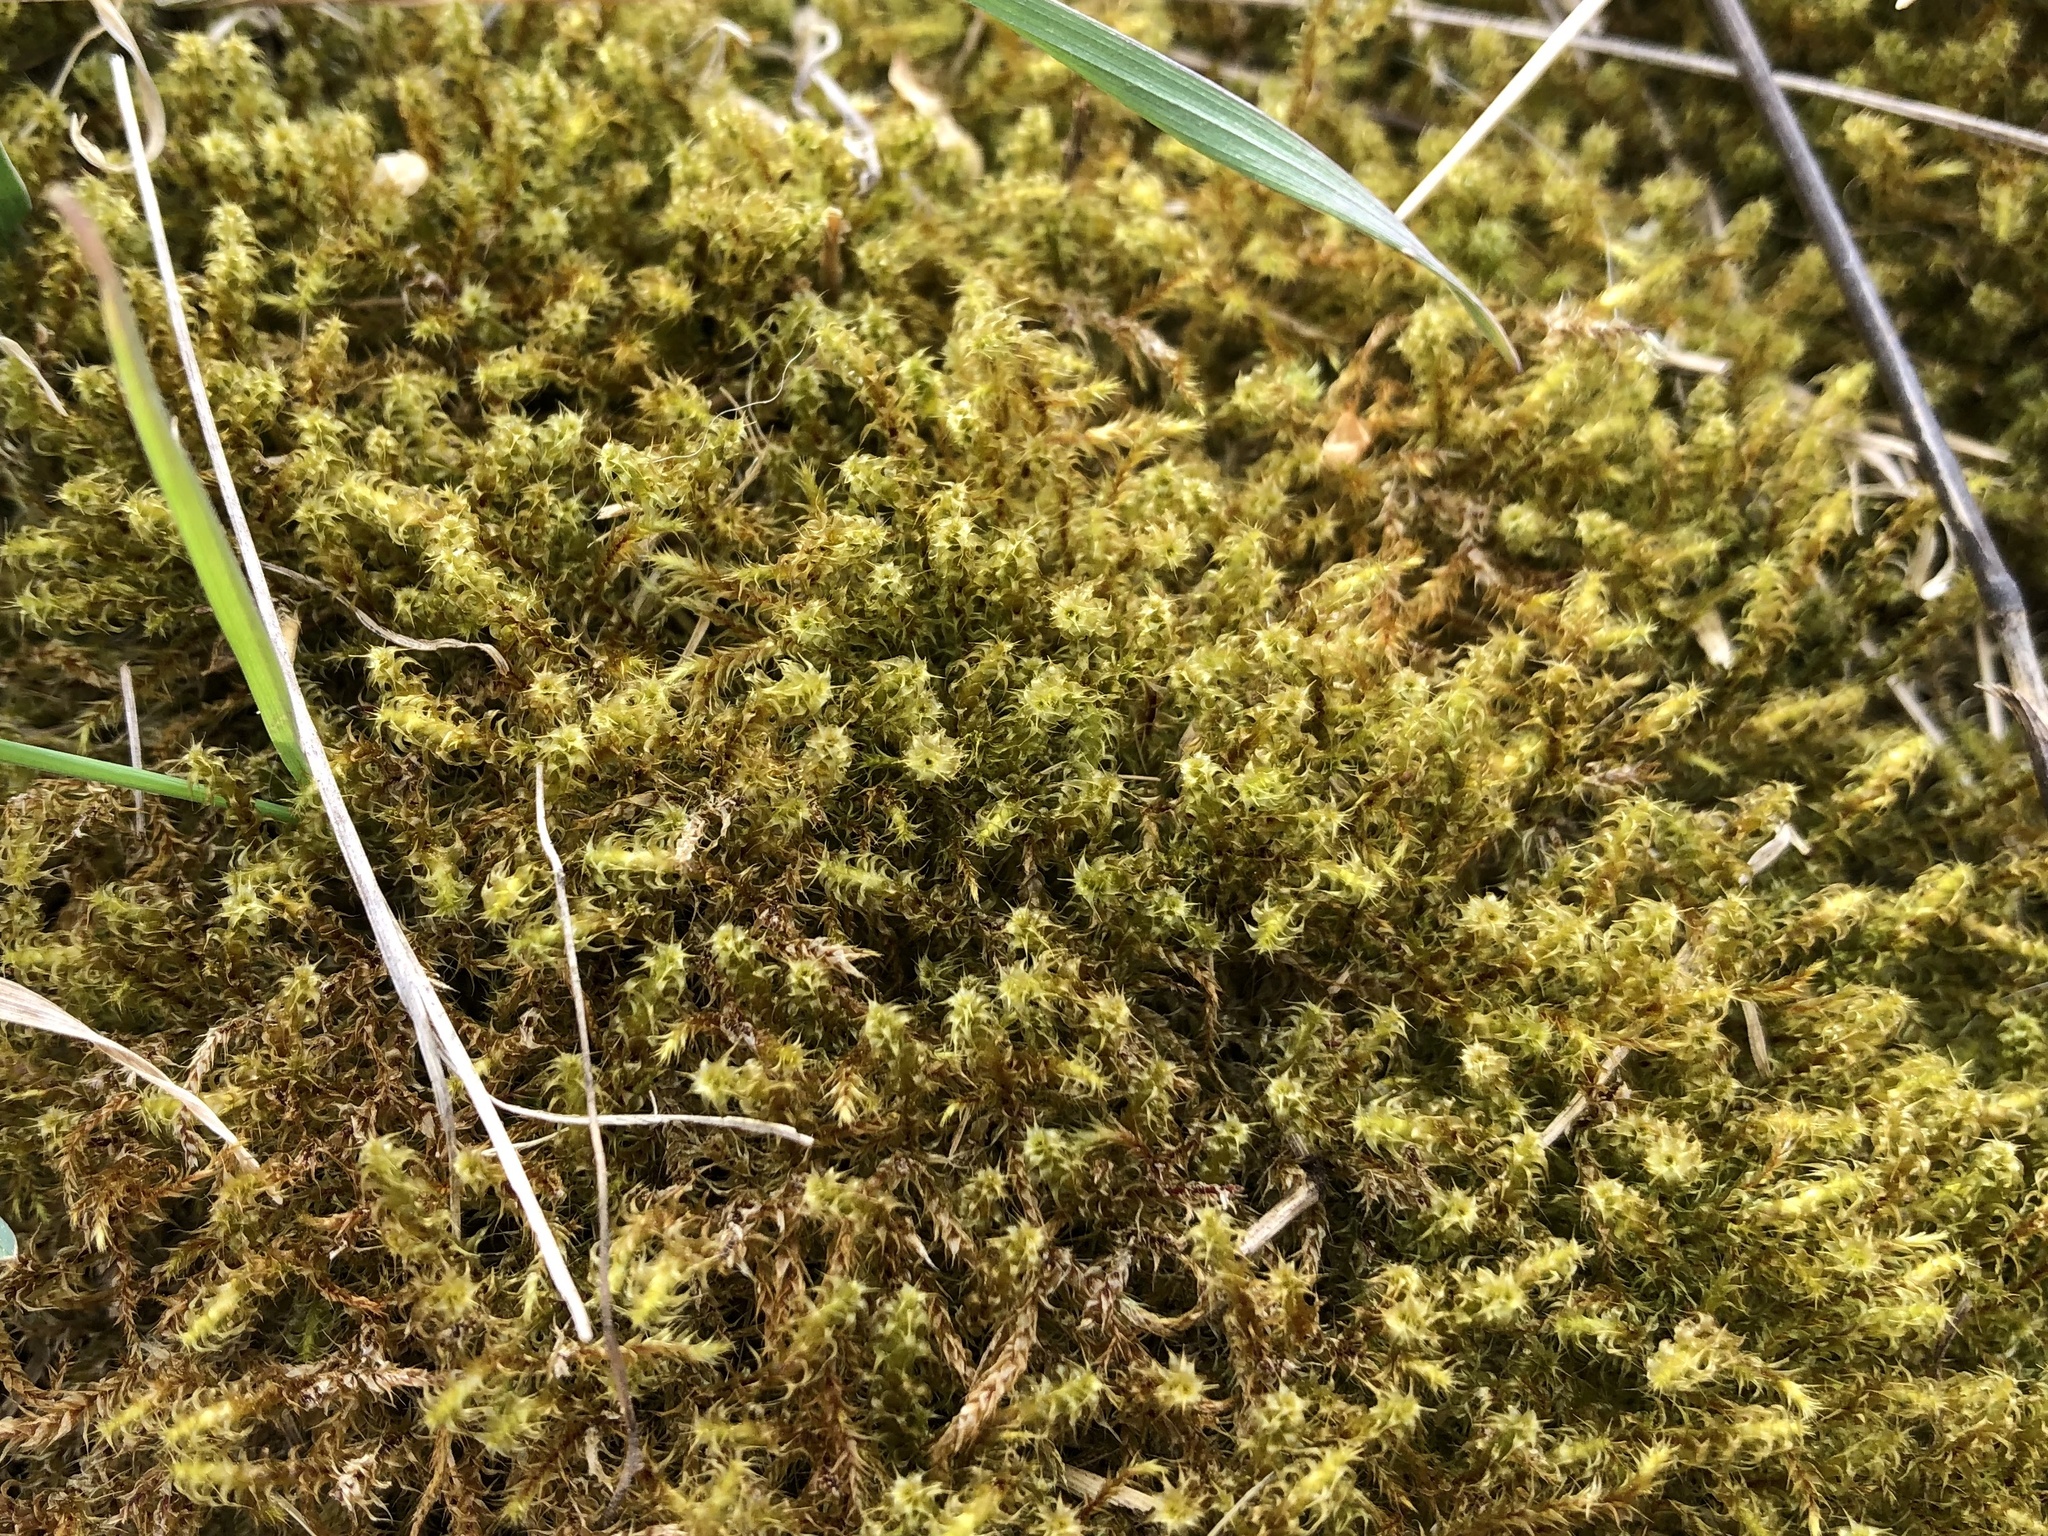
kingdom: Plantae
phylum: Bryophyta
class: Bryopsida
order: Hypnales
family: Hylocomiaceae
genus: Rhytidiadelphus
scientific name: Rhytidiadelphus squarrosus
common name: Springy turf-moss
